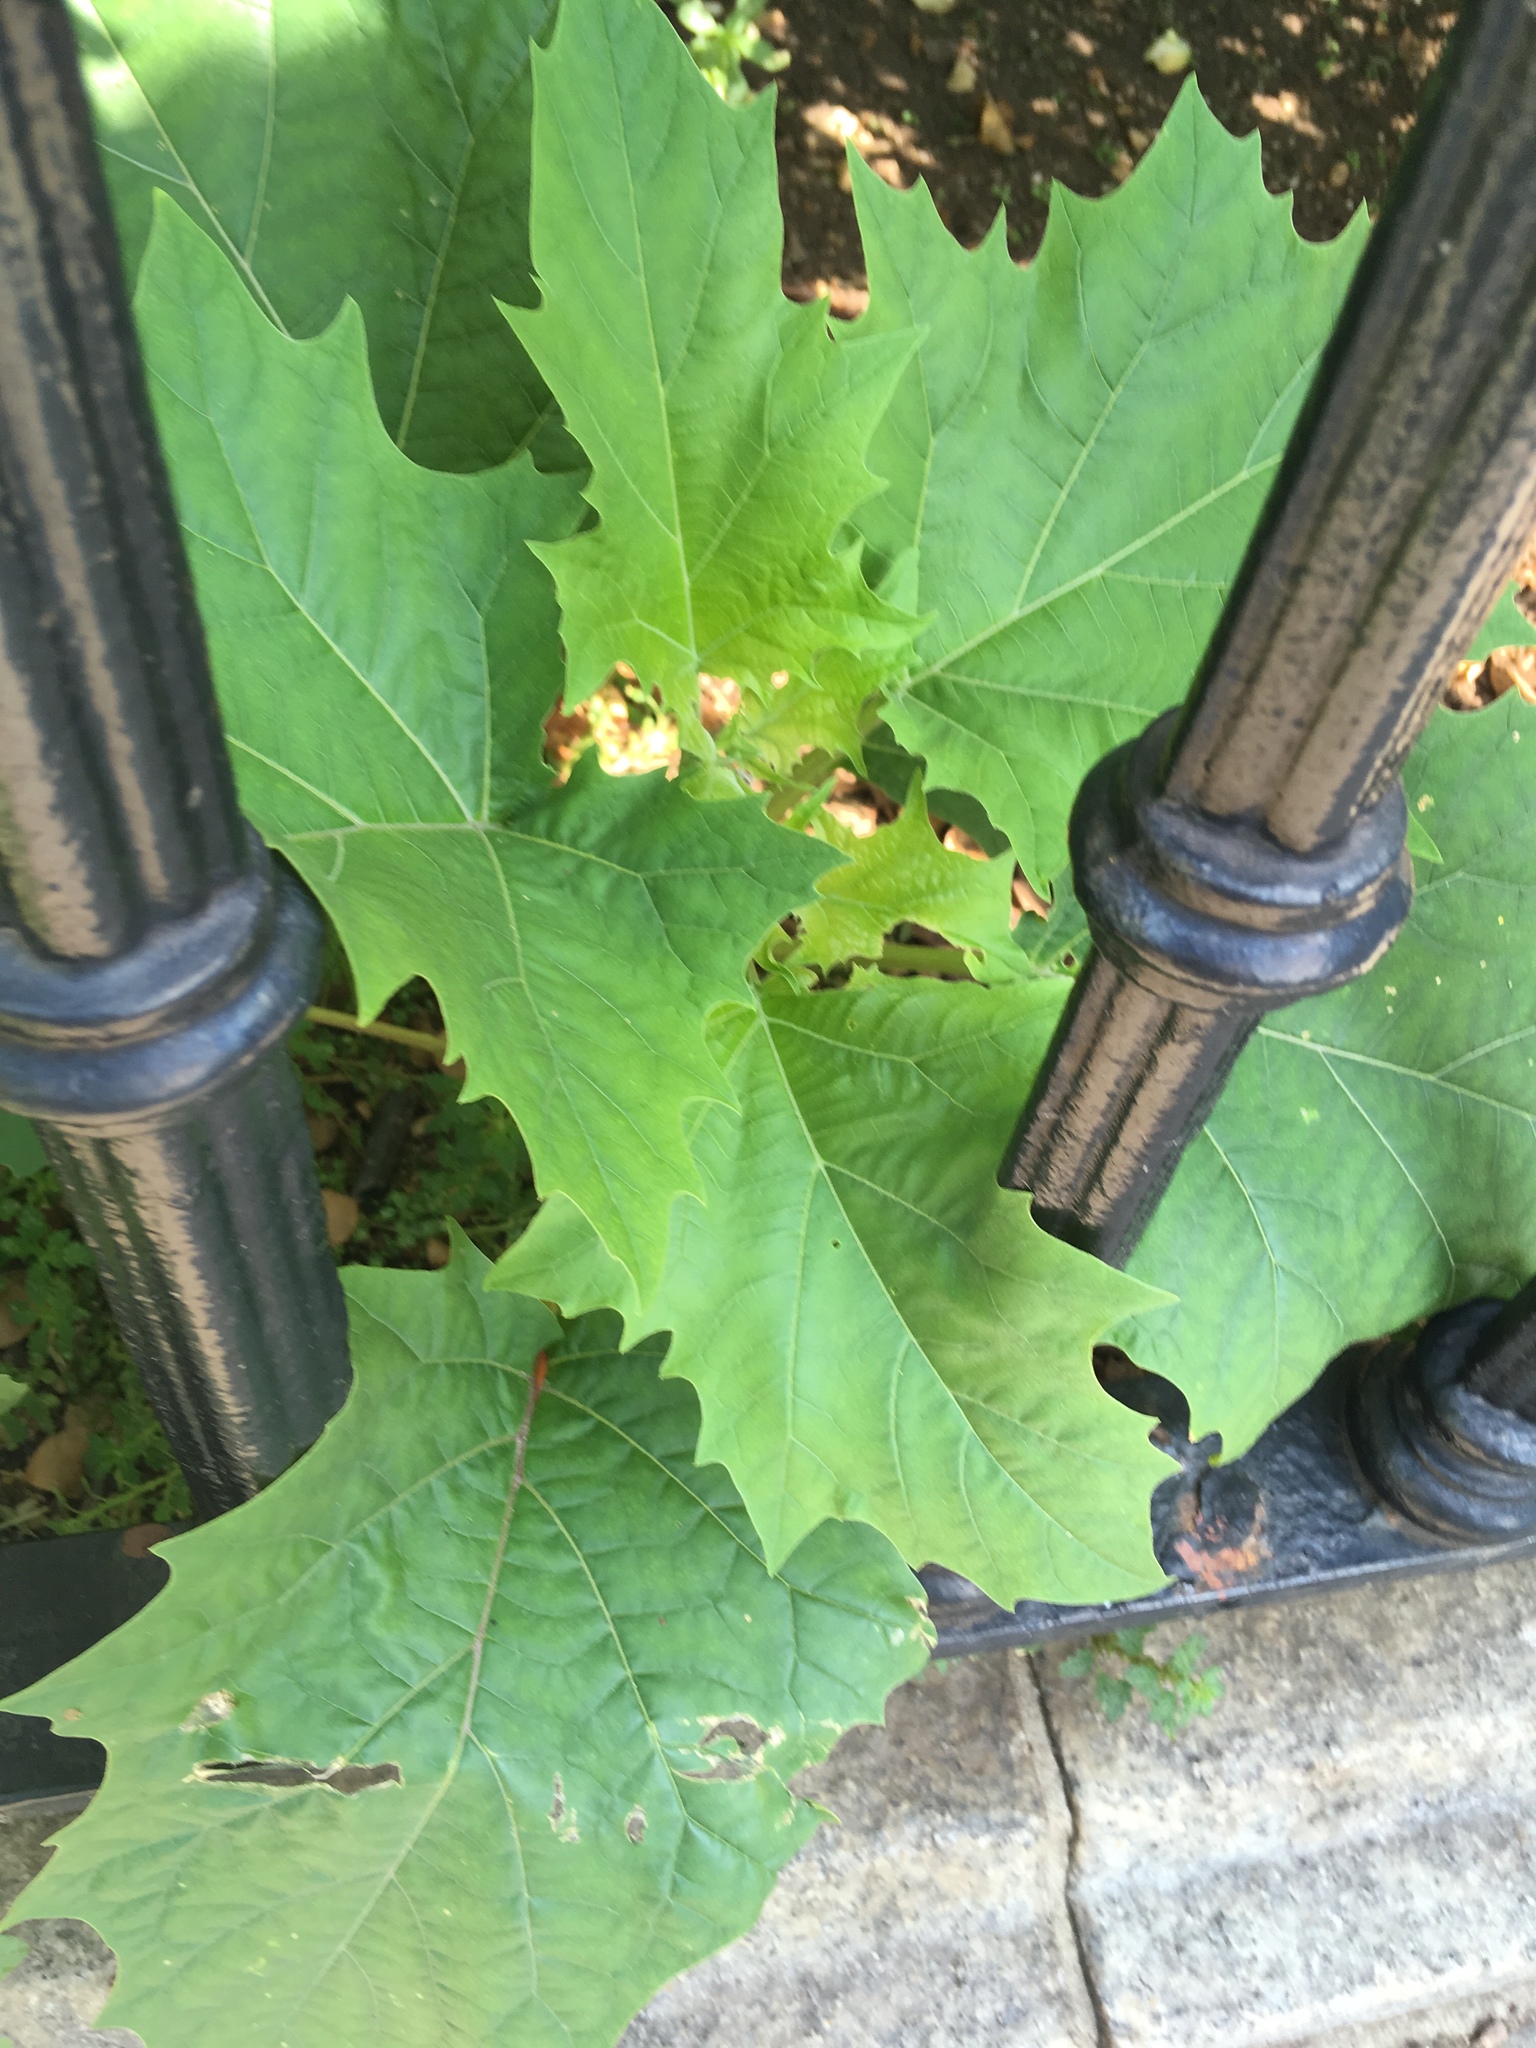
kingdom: Plantae
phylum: Tracheophyta
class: Magnoliopsida
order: Solanales
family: Solanaceae
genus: Datura
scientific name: Datura stramonium
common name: Thorn-apple
